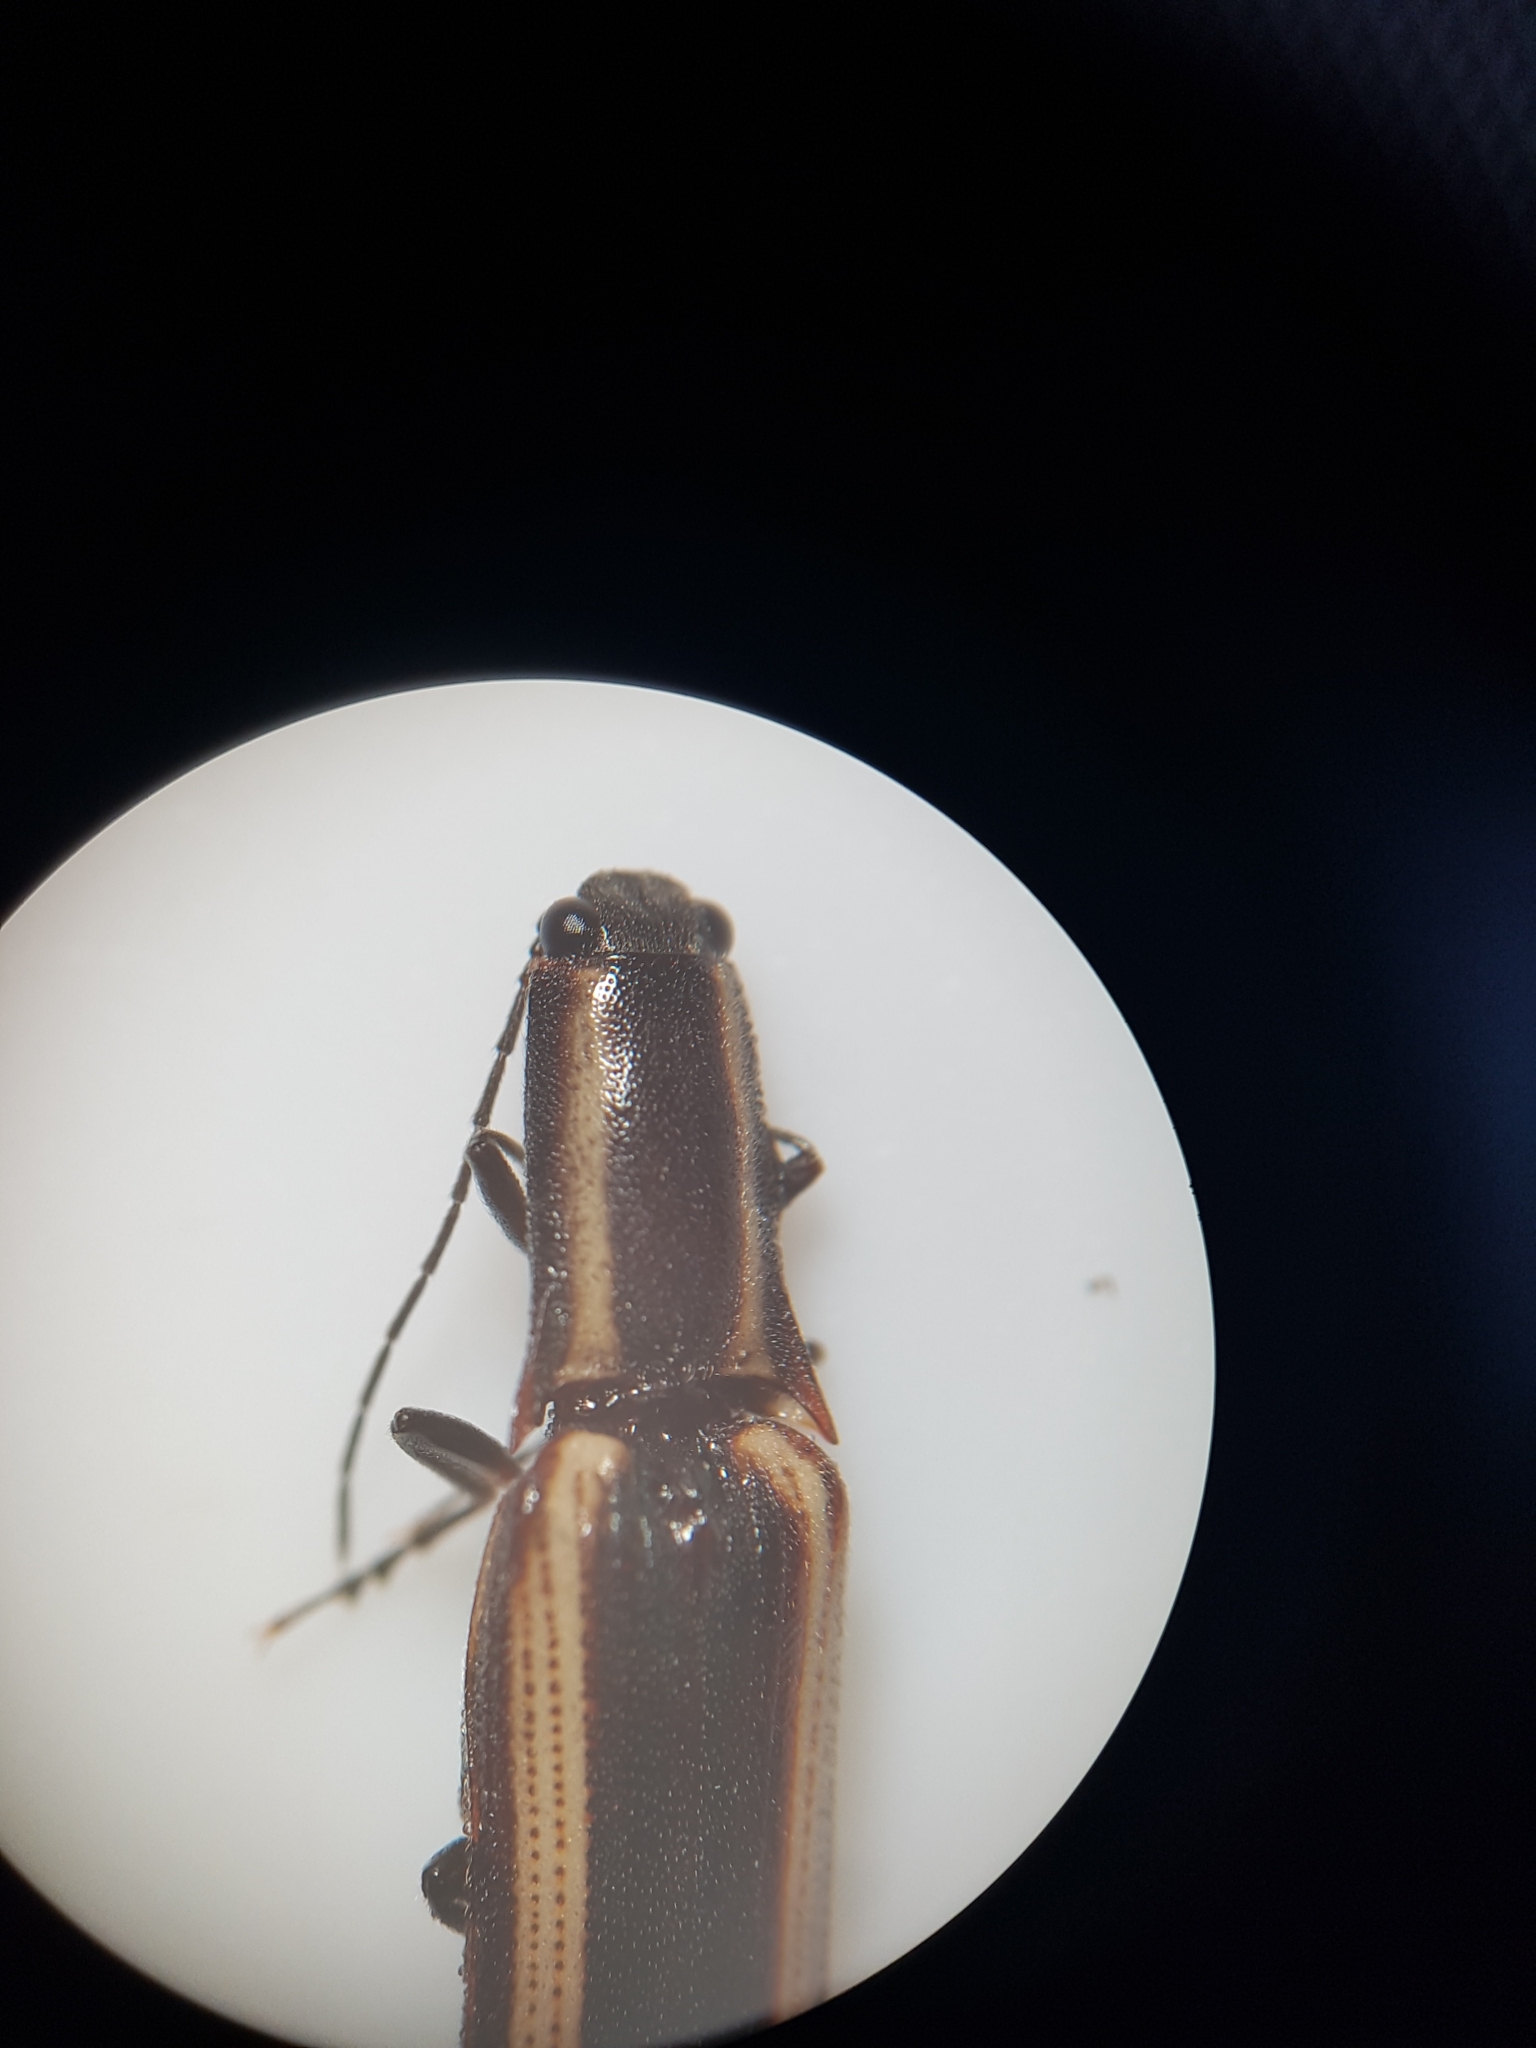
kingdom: Animalia
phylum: Arthropoda
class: Insecta
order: Coleoptera
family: Elateridae
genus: Metablax
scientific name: Metablax
